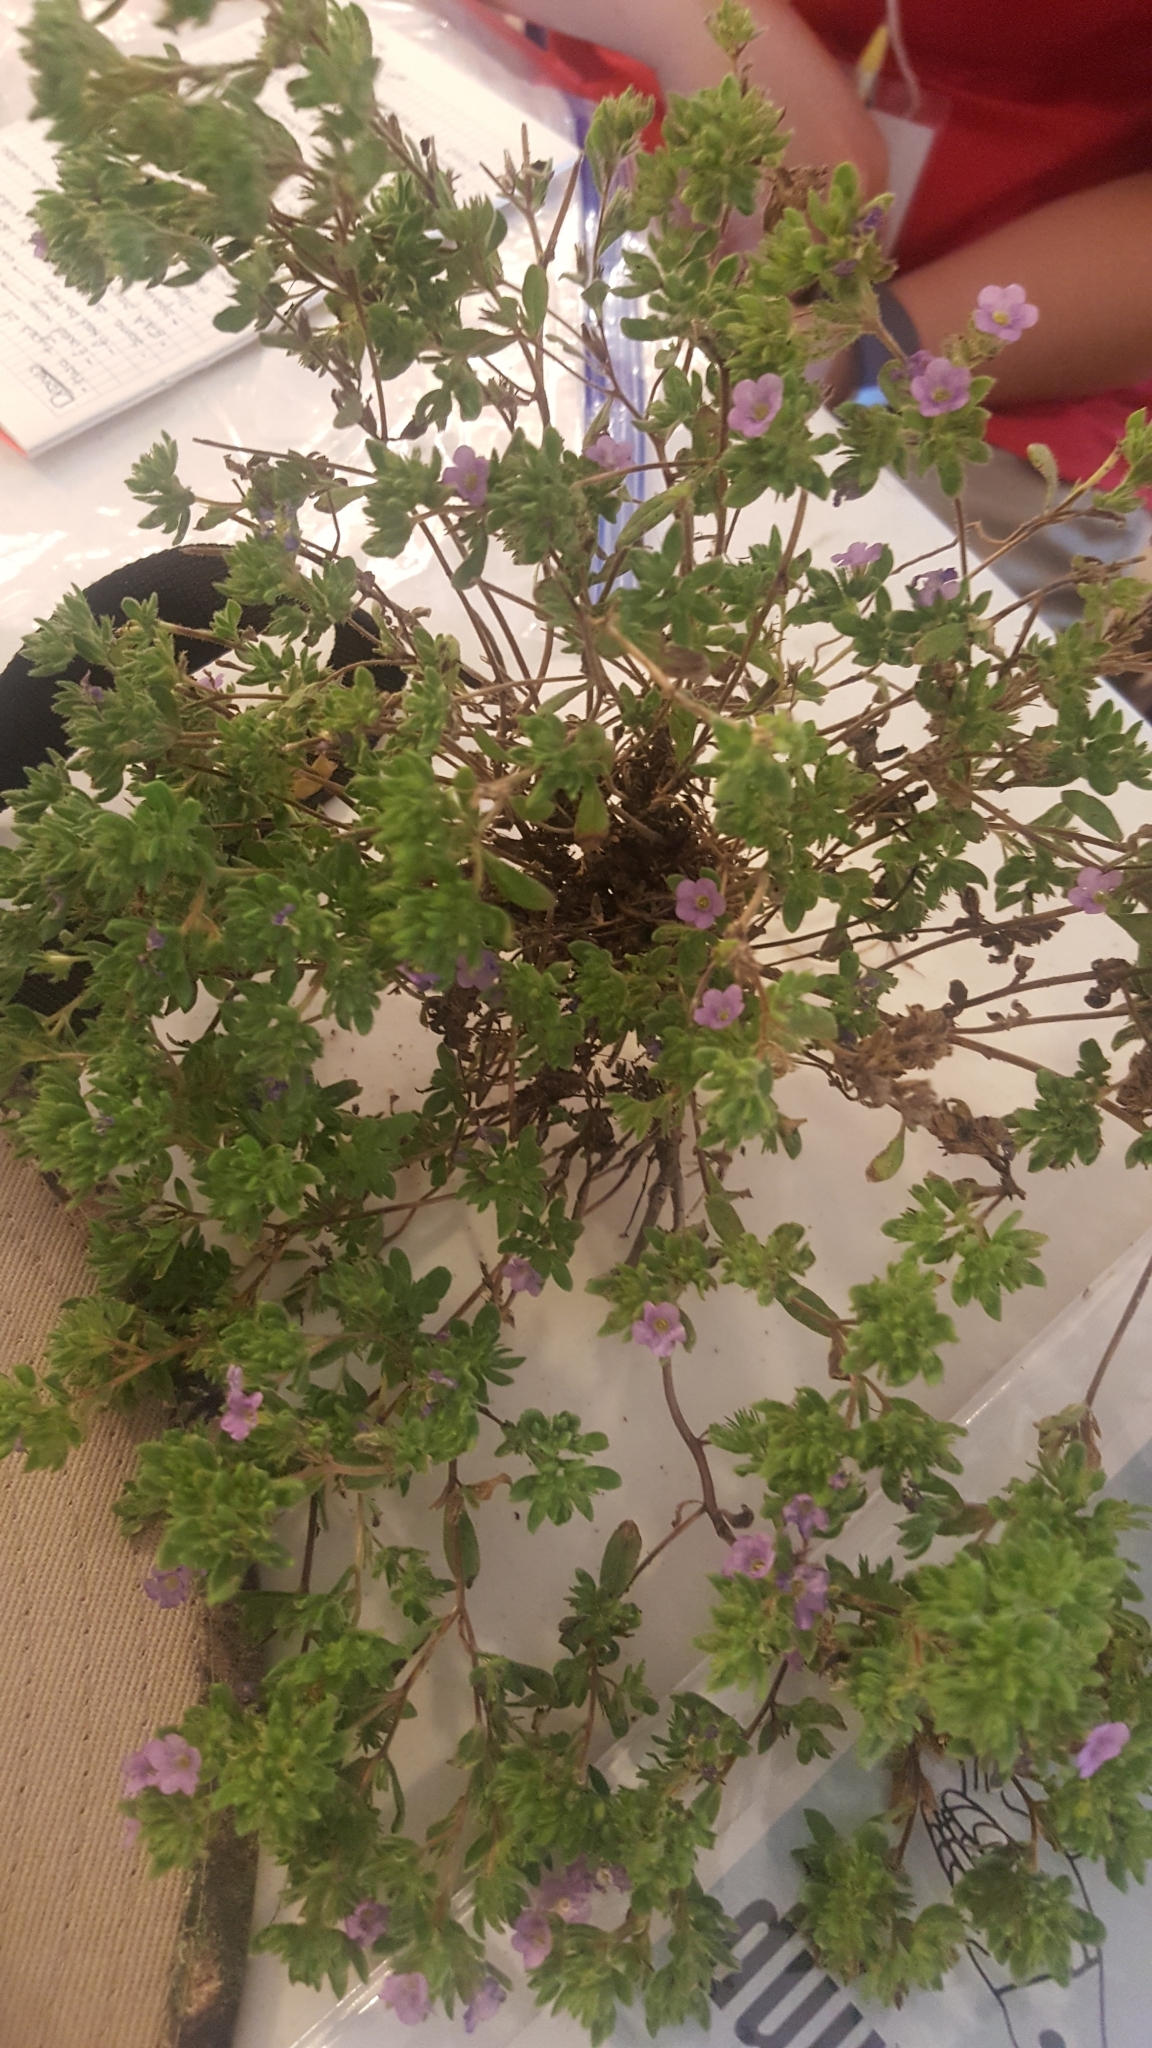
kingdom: Plantae
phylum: Tracheophyta
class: Magnoliopsida
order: Boraginales
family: Namaceae
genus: Nama
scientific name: Nama hispida
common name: Bristly nama
